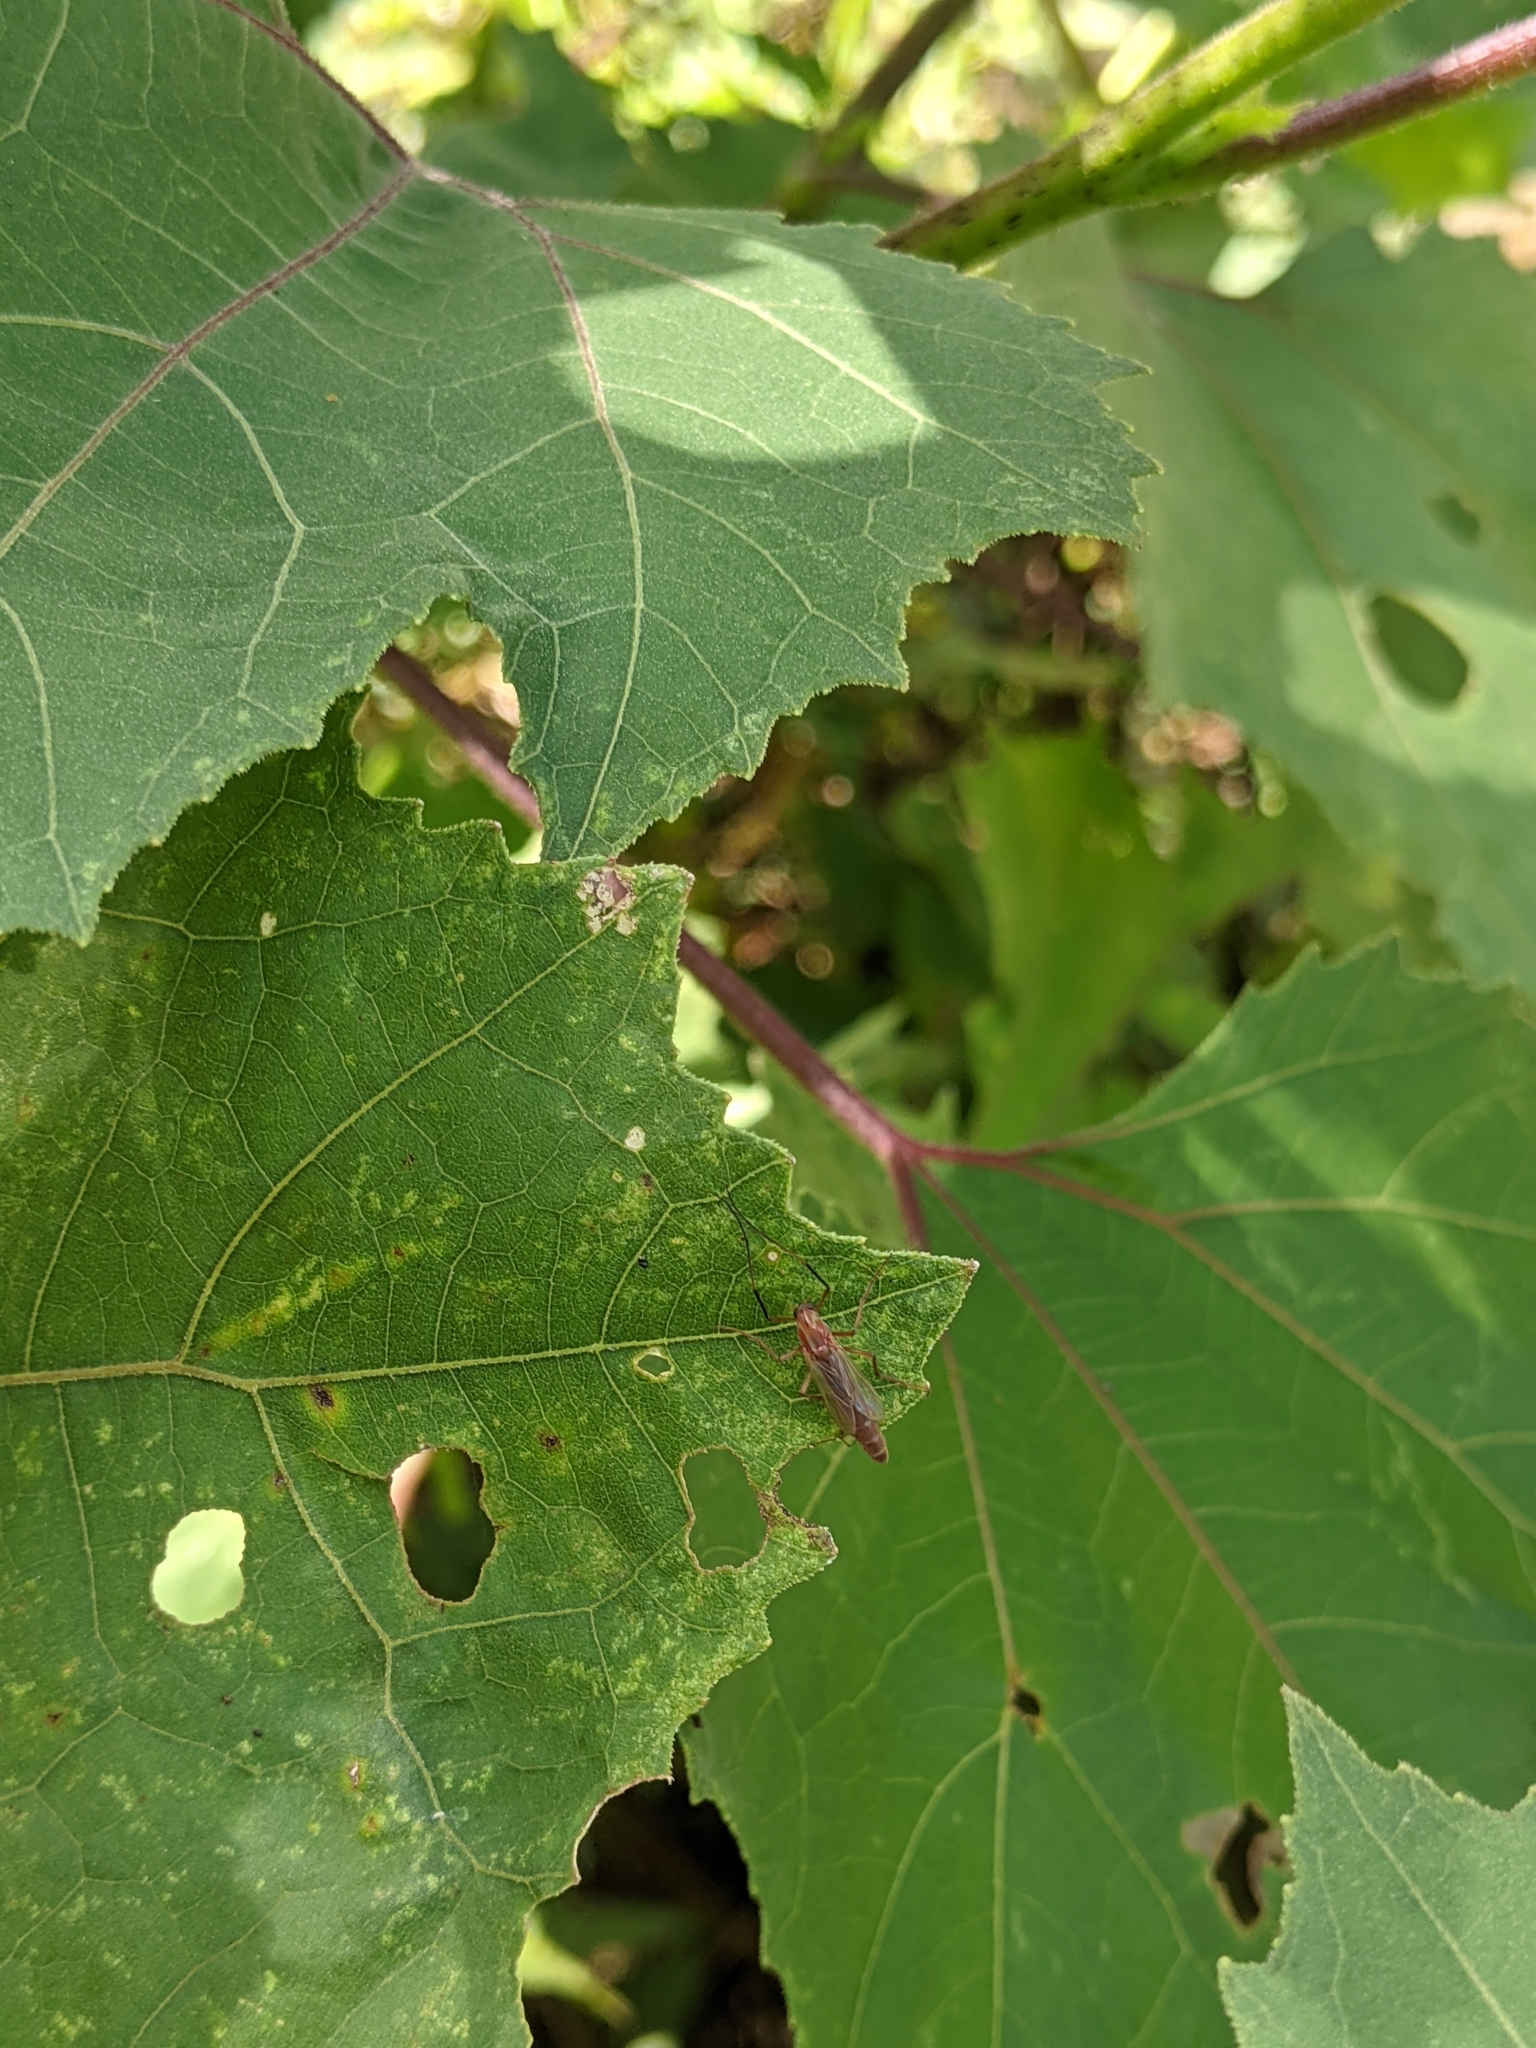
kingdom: Animalia
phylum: Arthropoda
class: Insecta
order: Diptera
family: Chironomidae
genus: Axarus
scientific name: Axarus
